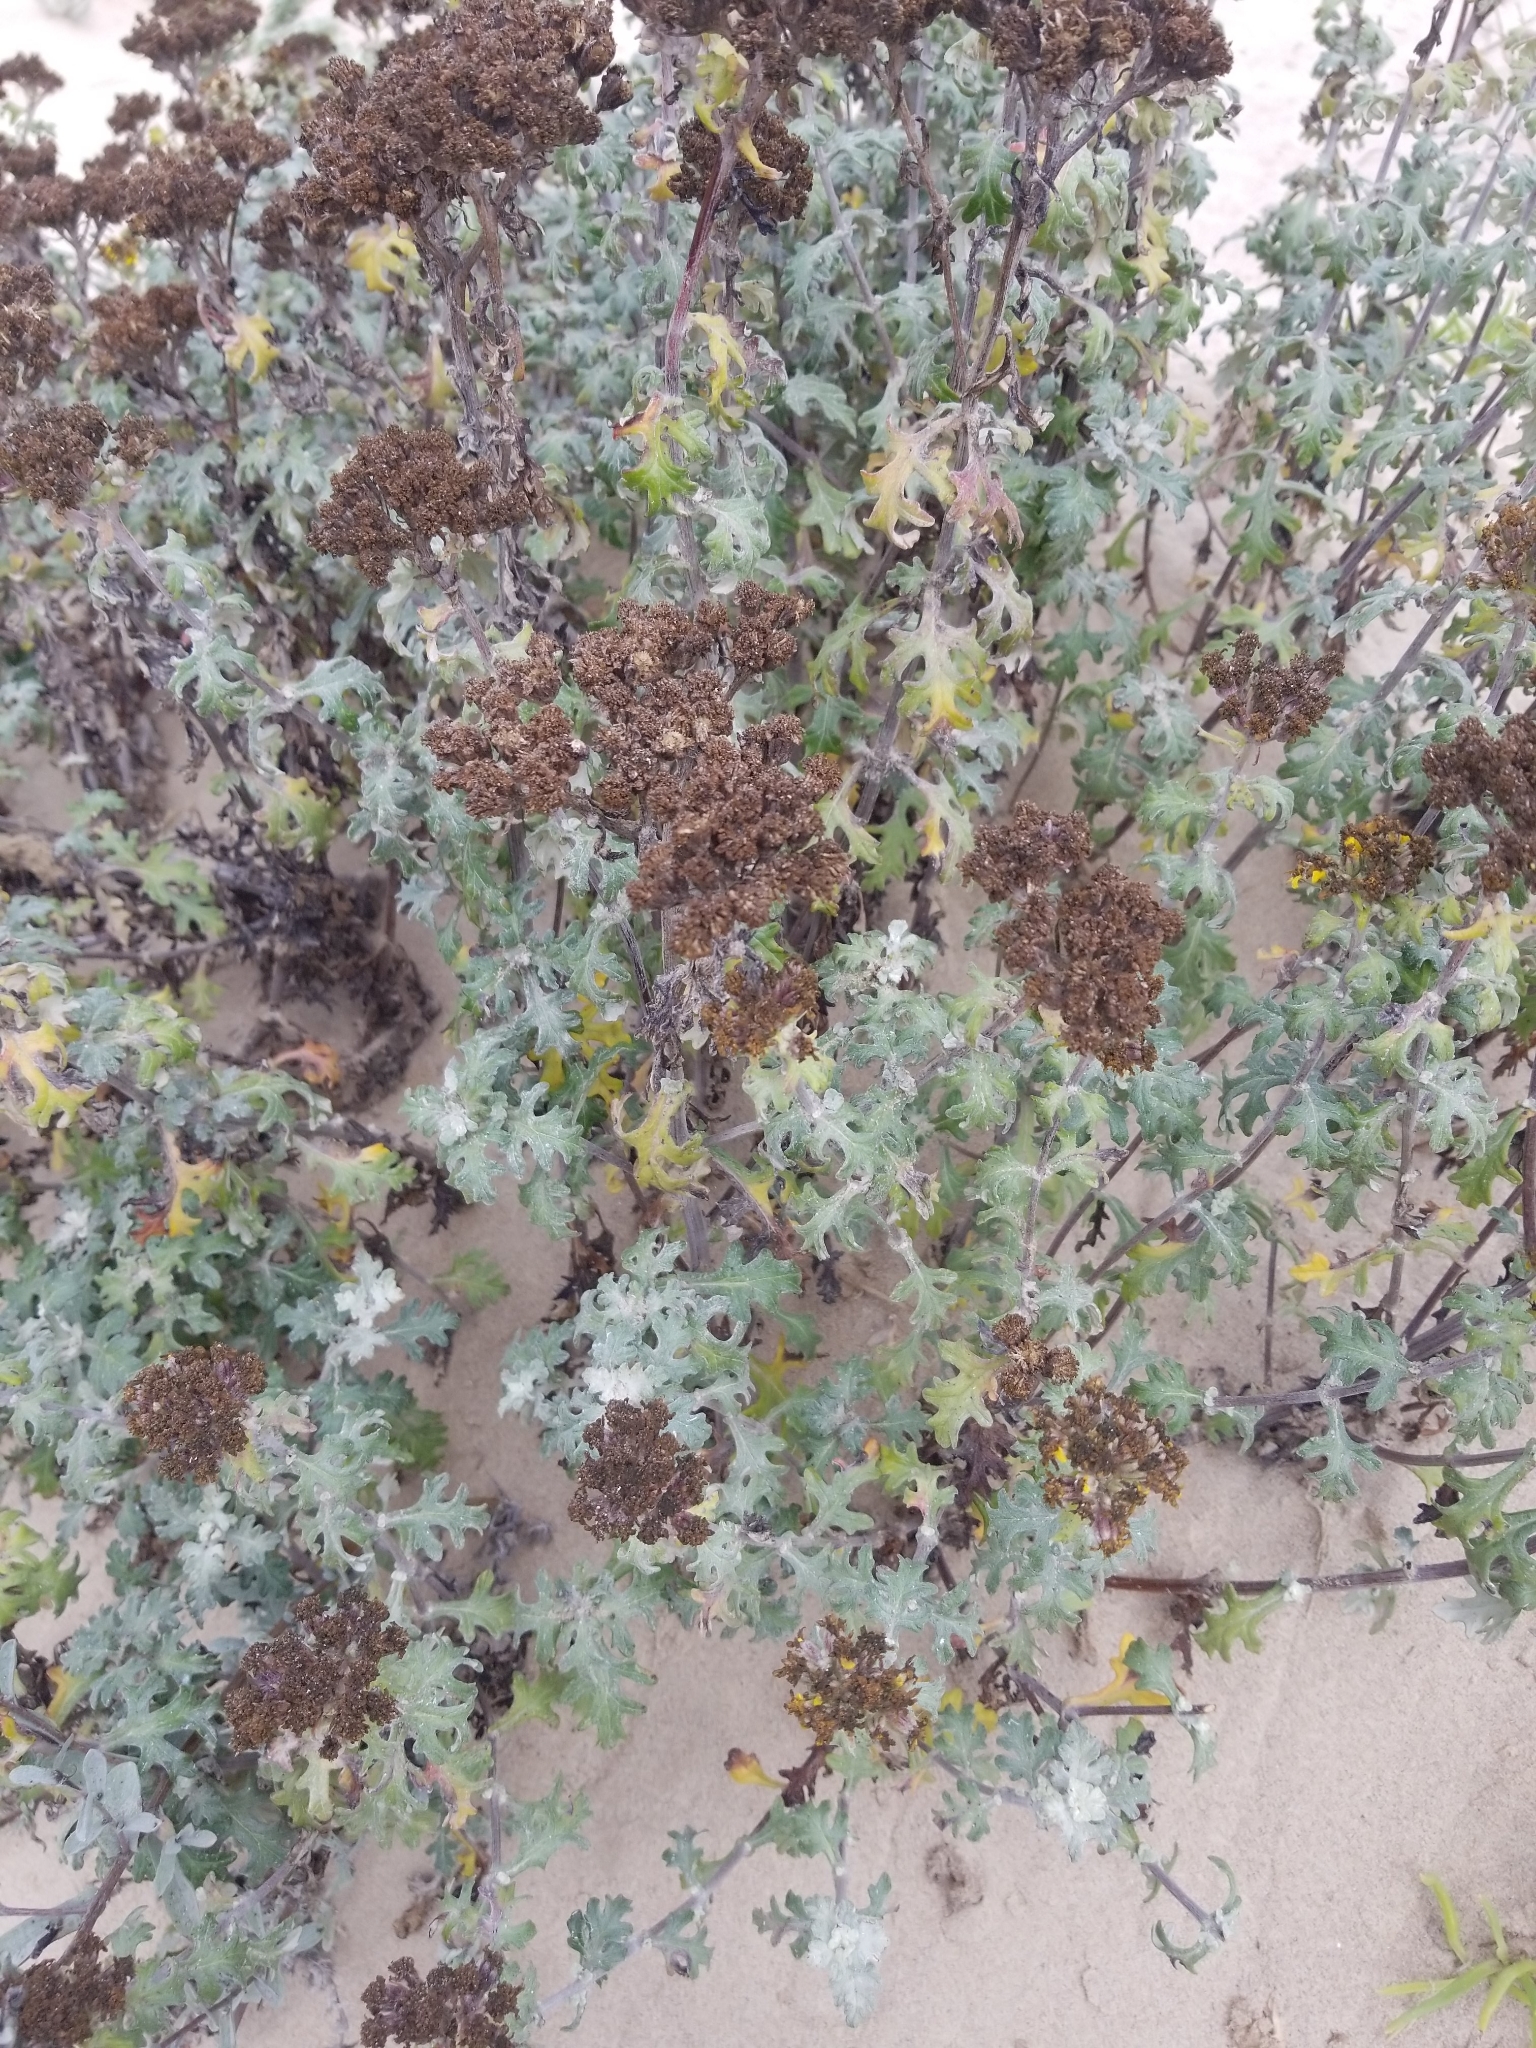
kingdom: Plantae
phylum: Tracheophyta
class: Magnoliopsida
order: Asterales
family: Asteraceae
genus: Eriophyllum
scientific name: Eriophyllum staechadifolium
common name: Lizardtail
